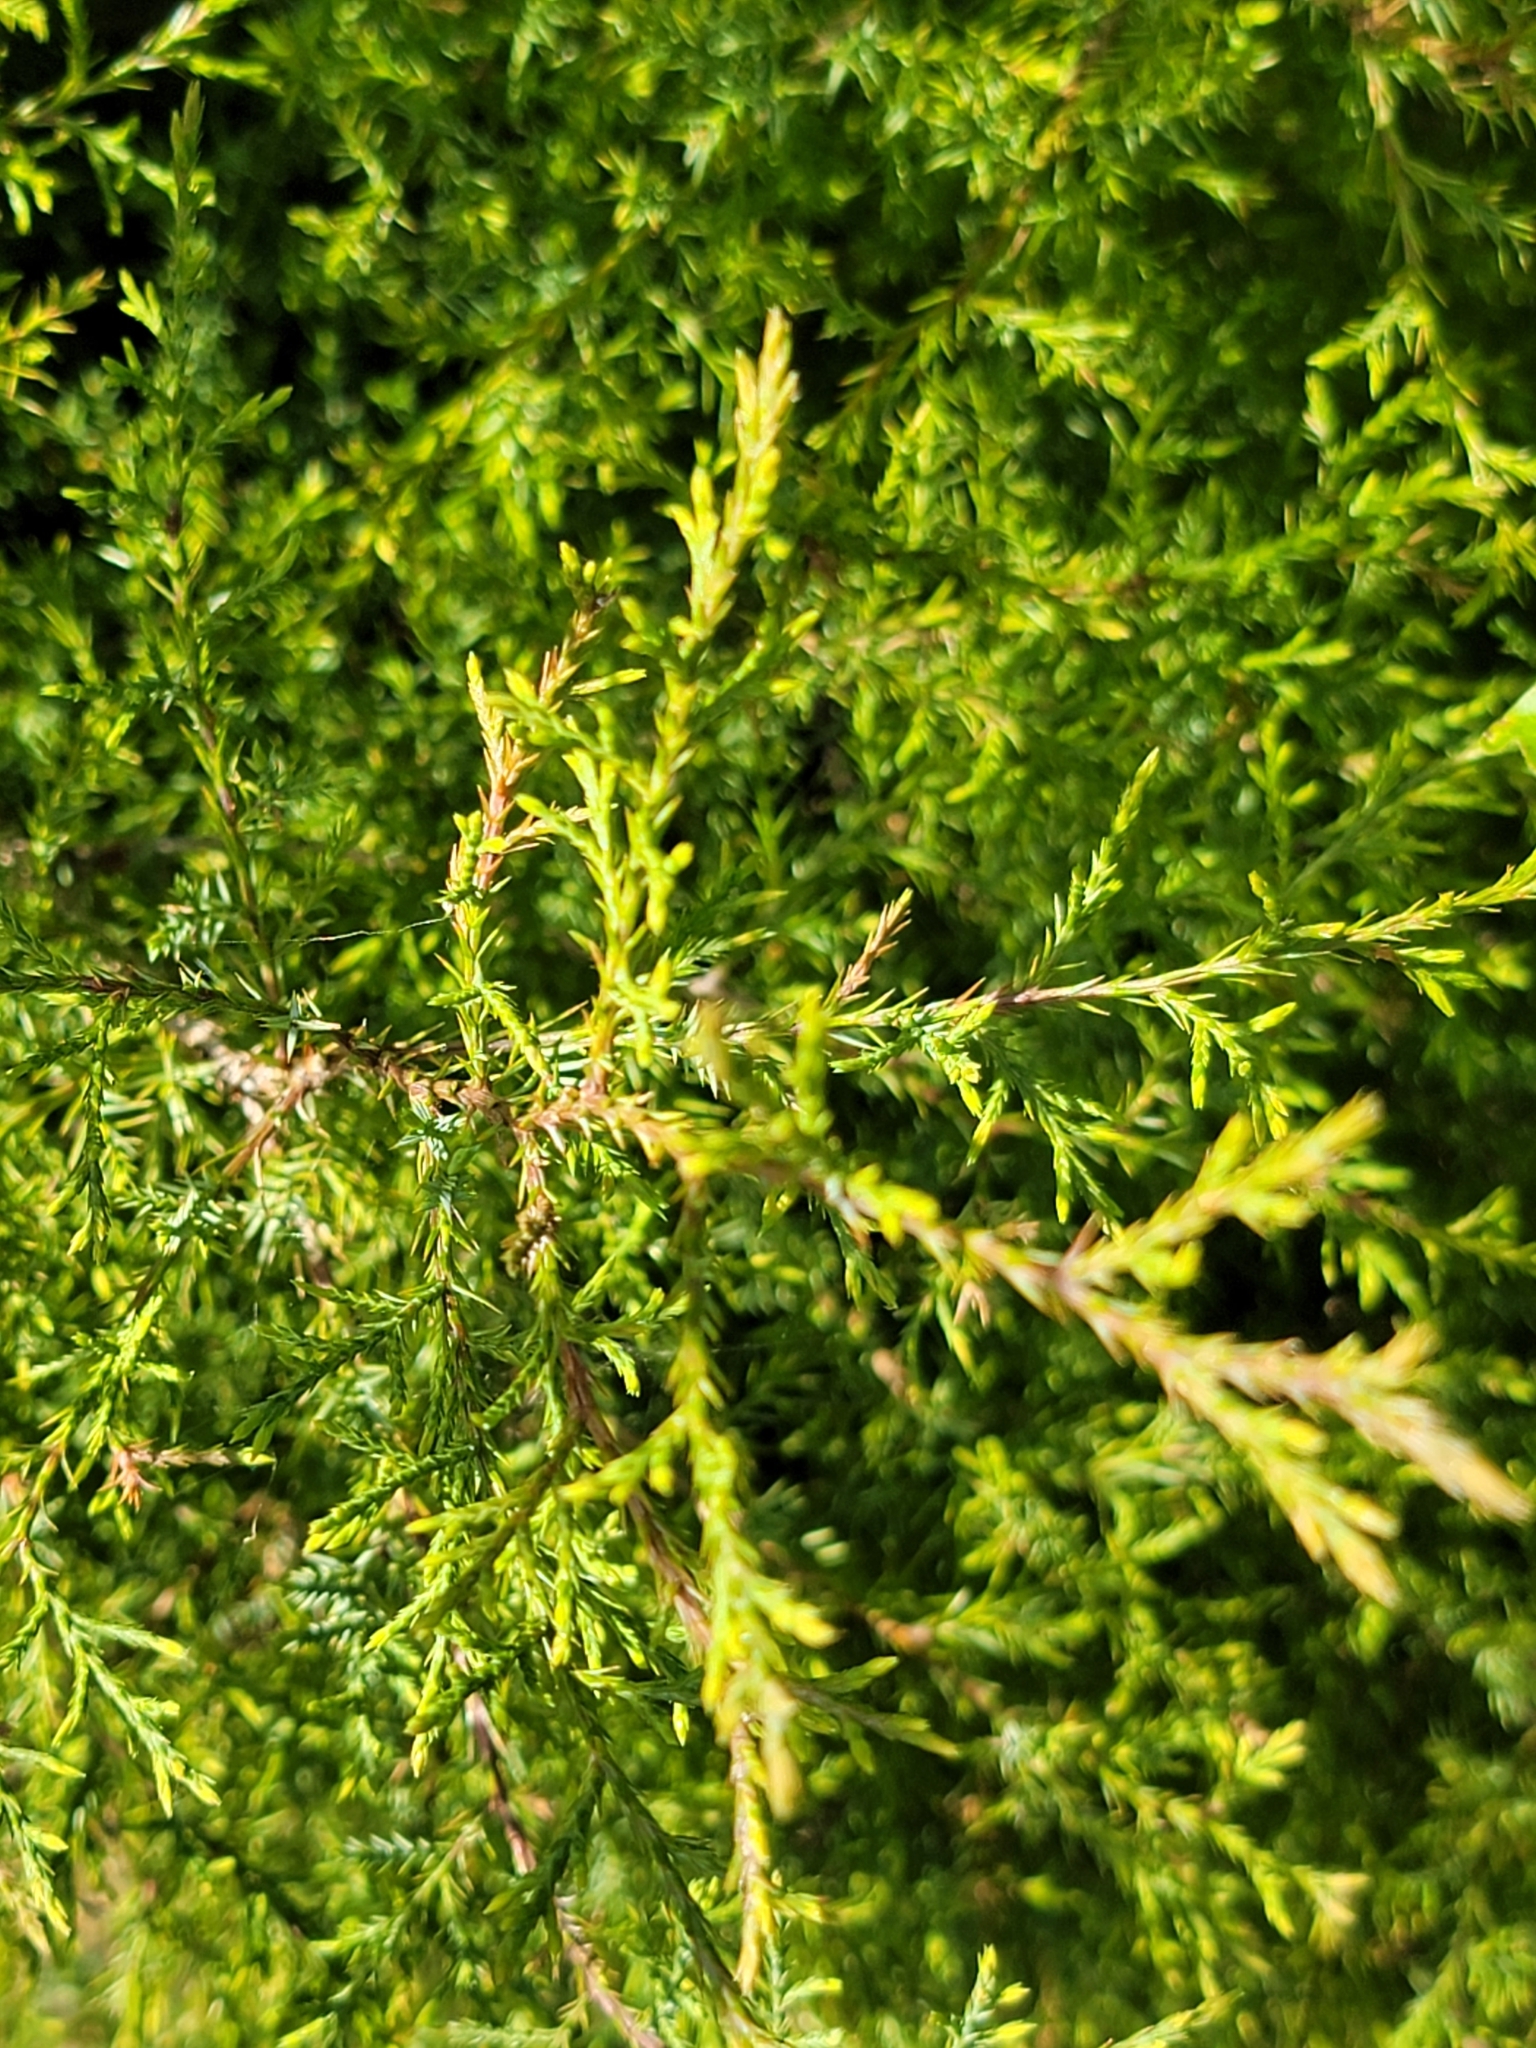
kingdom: Plantae
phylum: Tracheophyta
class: Pinopsida
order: Pinales
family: Cupressaceae
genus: Juniperus
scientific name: Juniperus virginiana
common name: Red juniper
